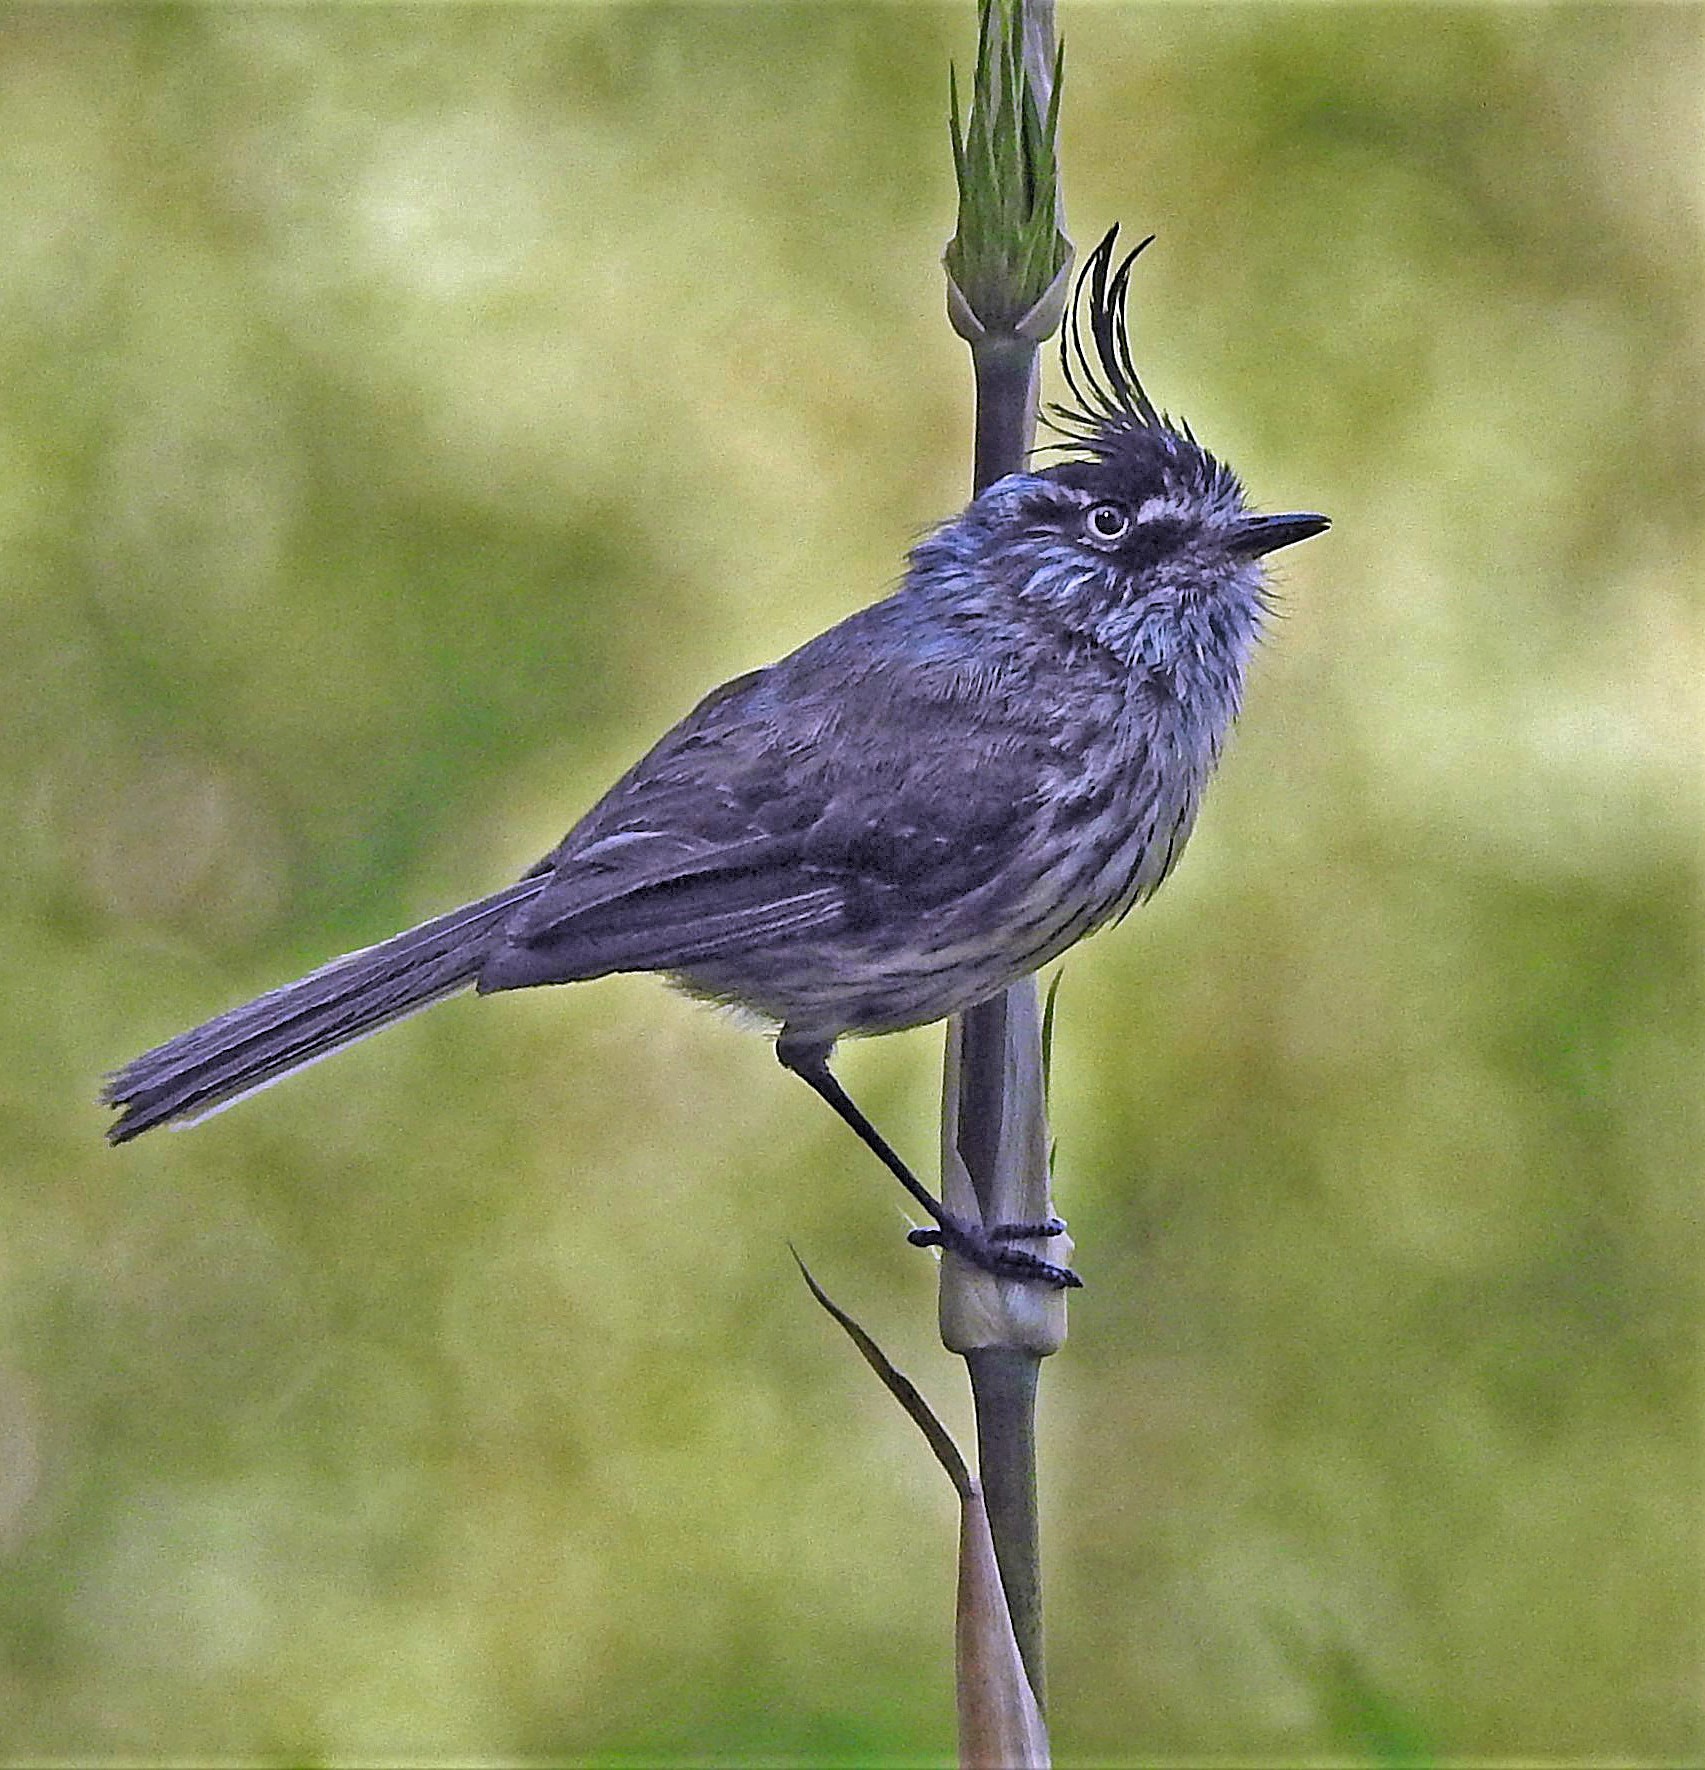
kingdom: Animalia
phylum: Chordata
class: Aves
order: Passeriformes
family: Tyrannidae
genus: Anairetes
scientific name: Anairetes parulus
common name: Tufted tit-tyrant
